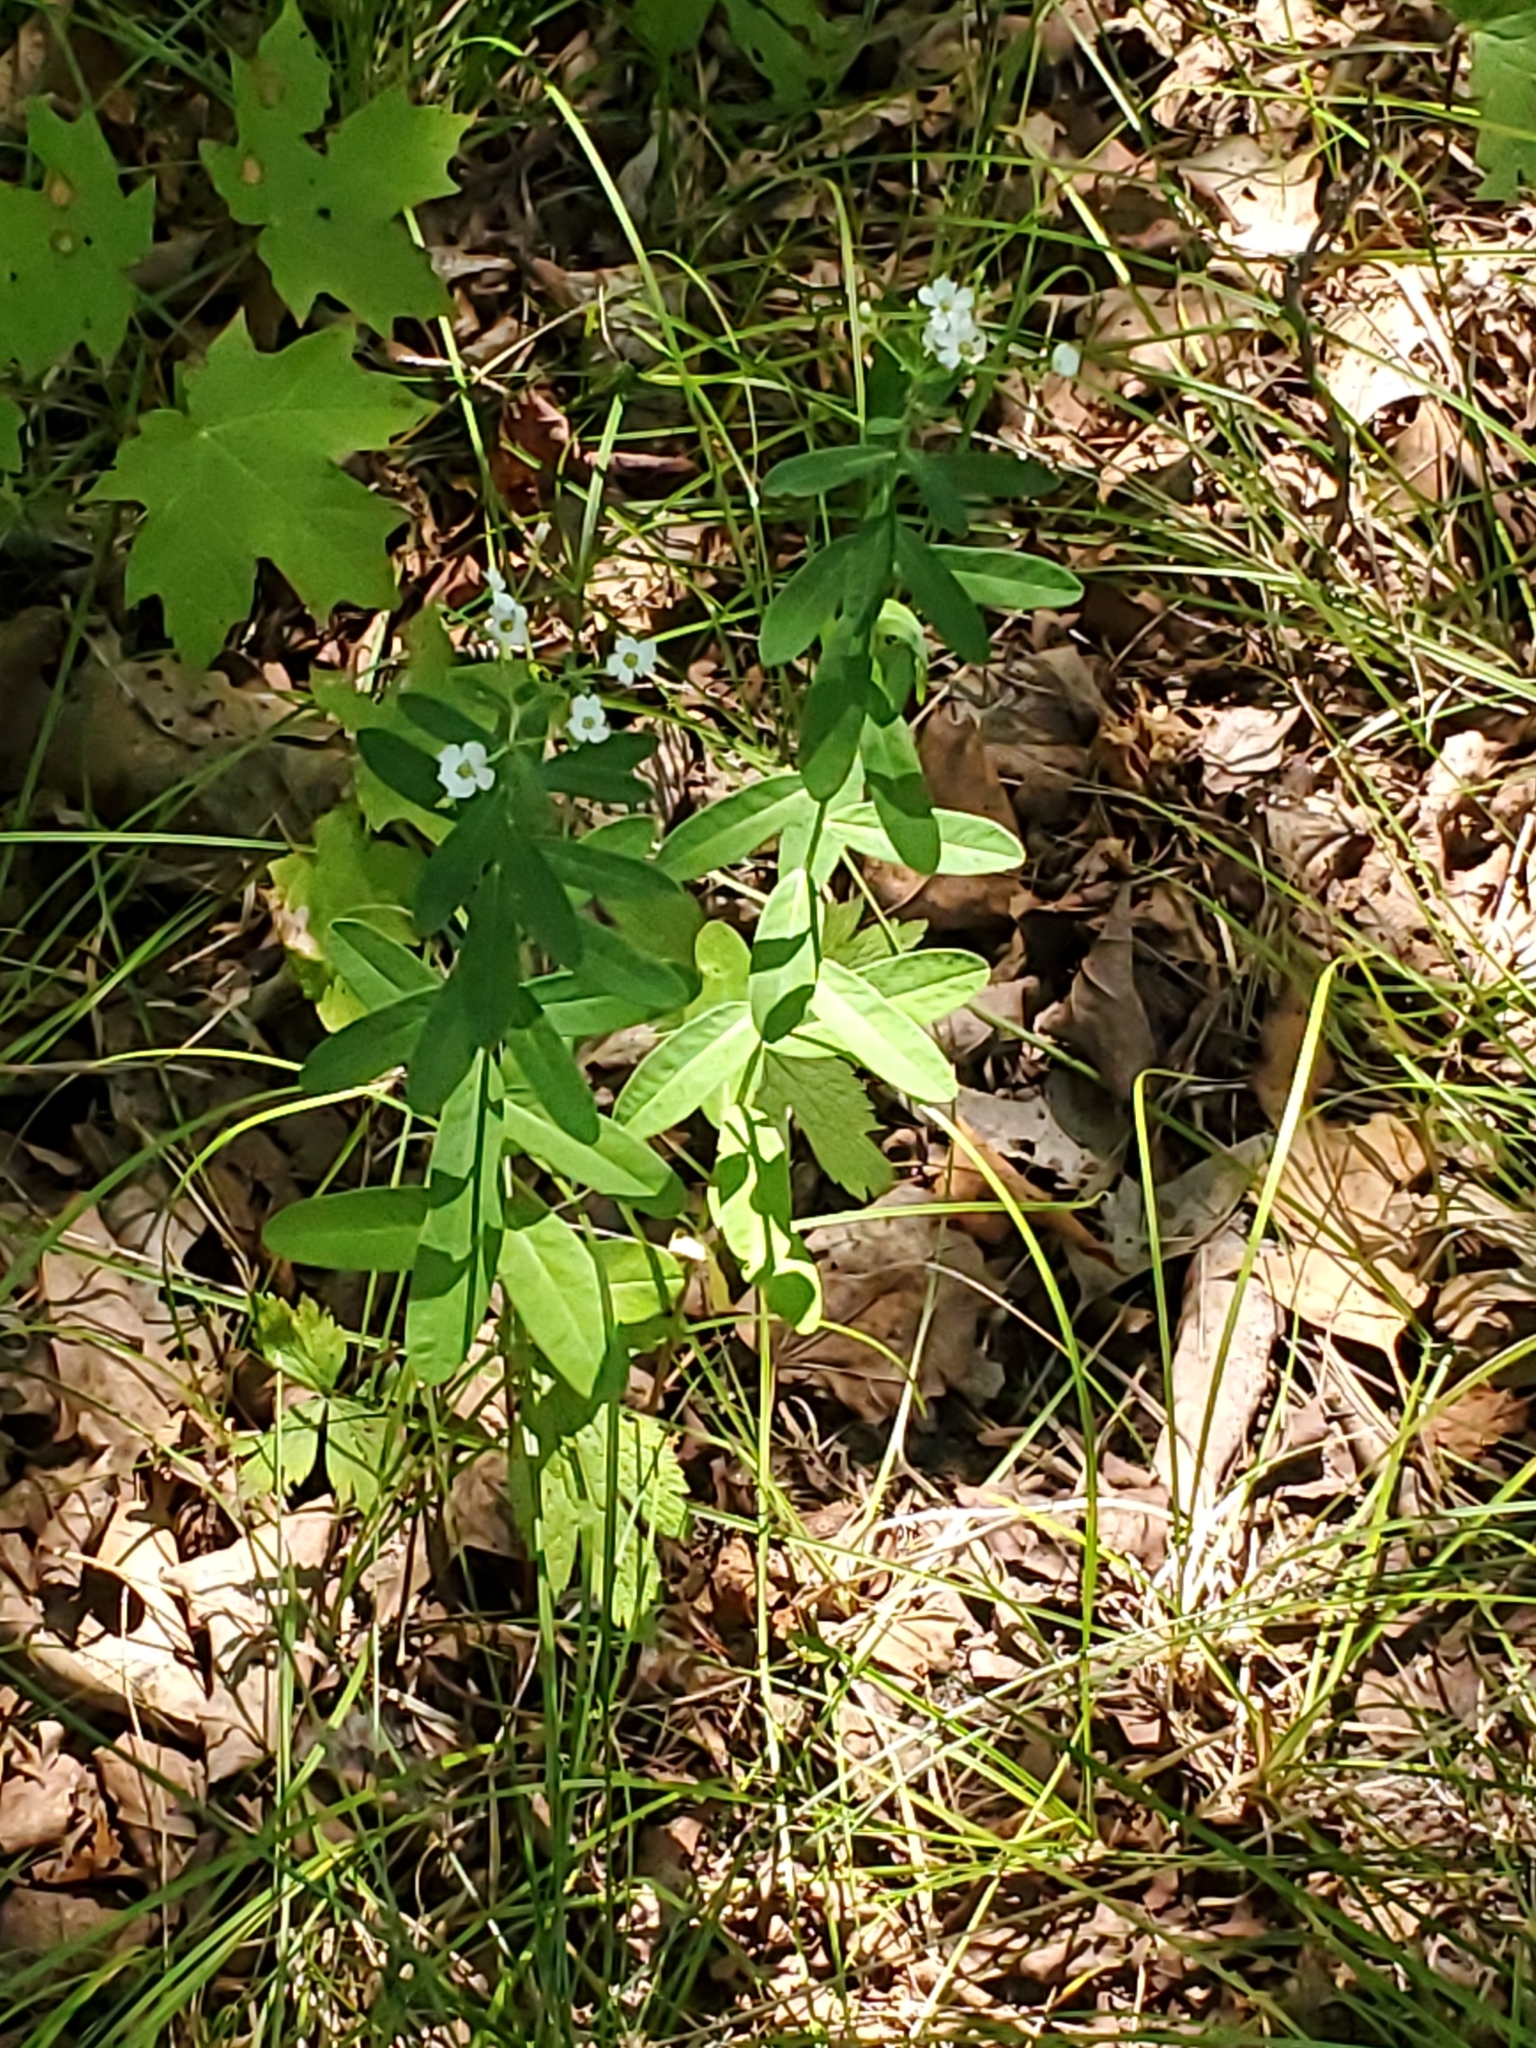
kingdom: Plantae
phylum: Tracheophyta
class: Magnoliopsida
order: Malpighiales
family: Euphorbiaceae
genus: Euphorbia
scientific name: Euphorbia corollata
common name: Flowering spurge
